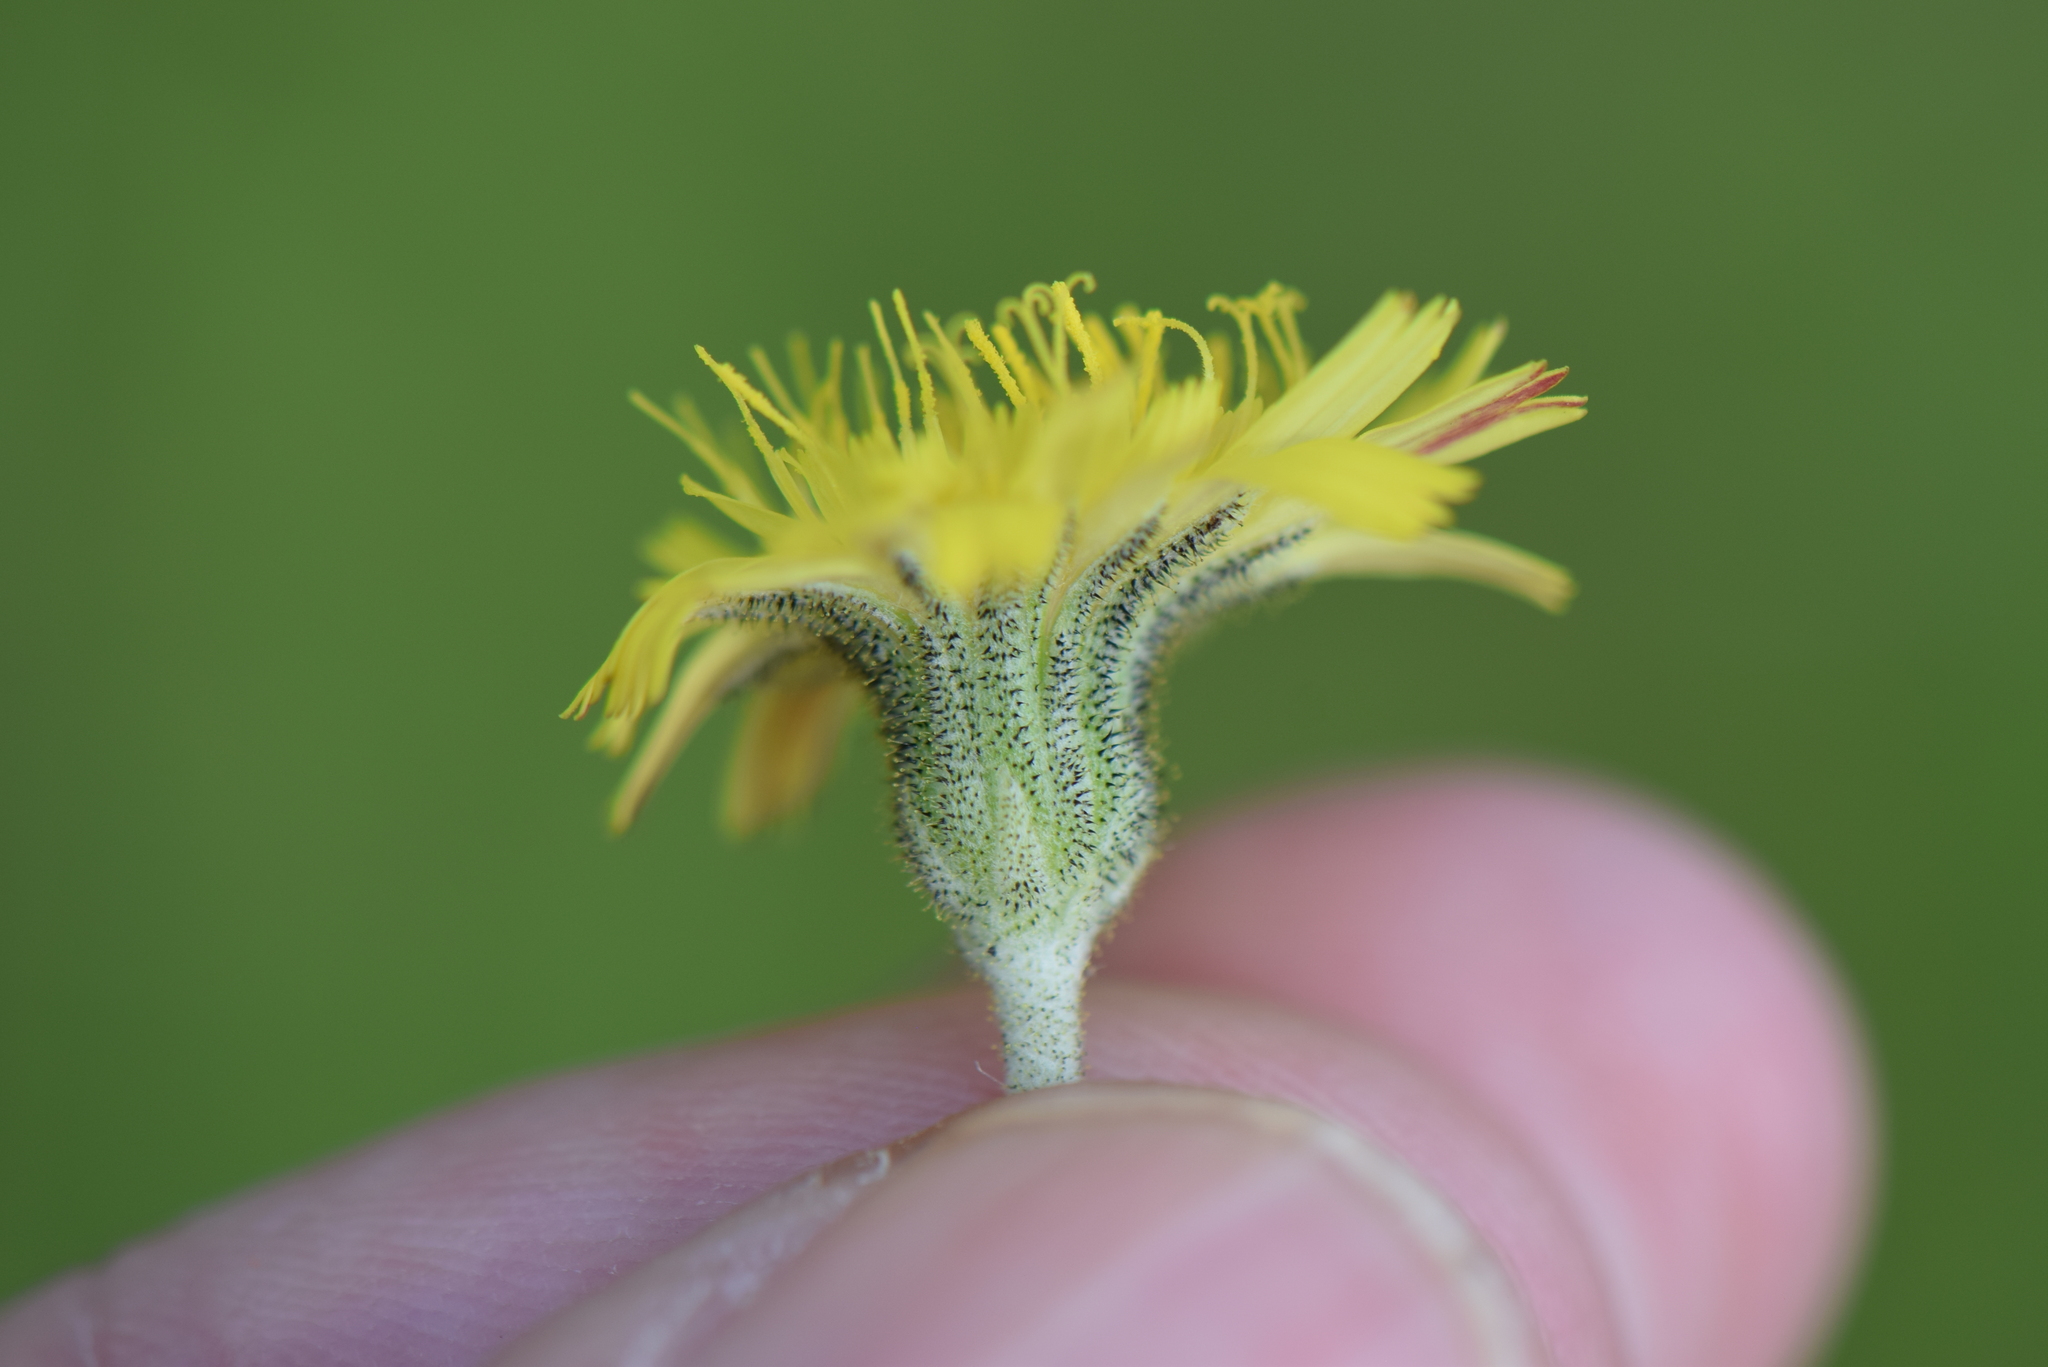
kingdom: Plantae
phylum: Tracheophyta
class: Magnoliopsida
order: Asterales
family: Asteraceae
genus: Pilosella
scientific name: Pilosella officinarum
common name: Mouse-ear hawkweed
